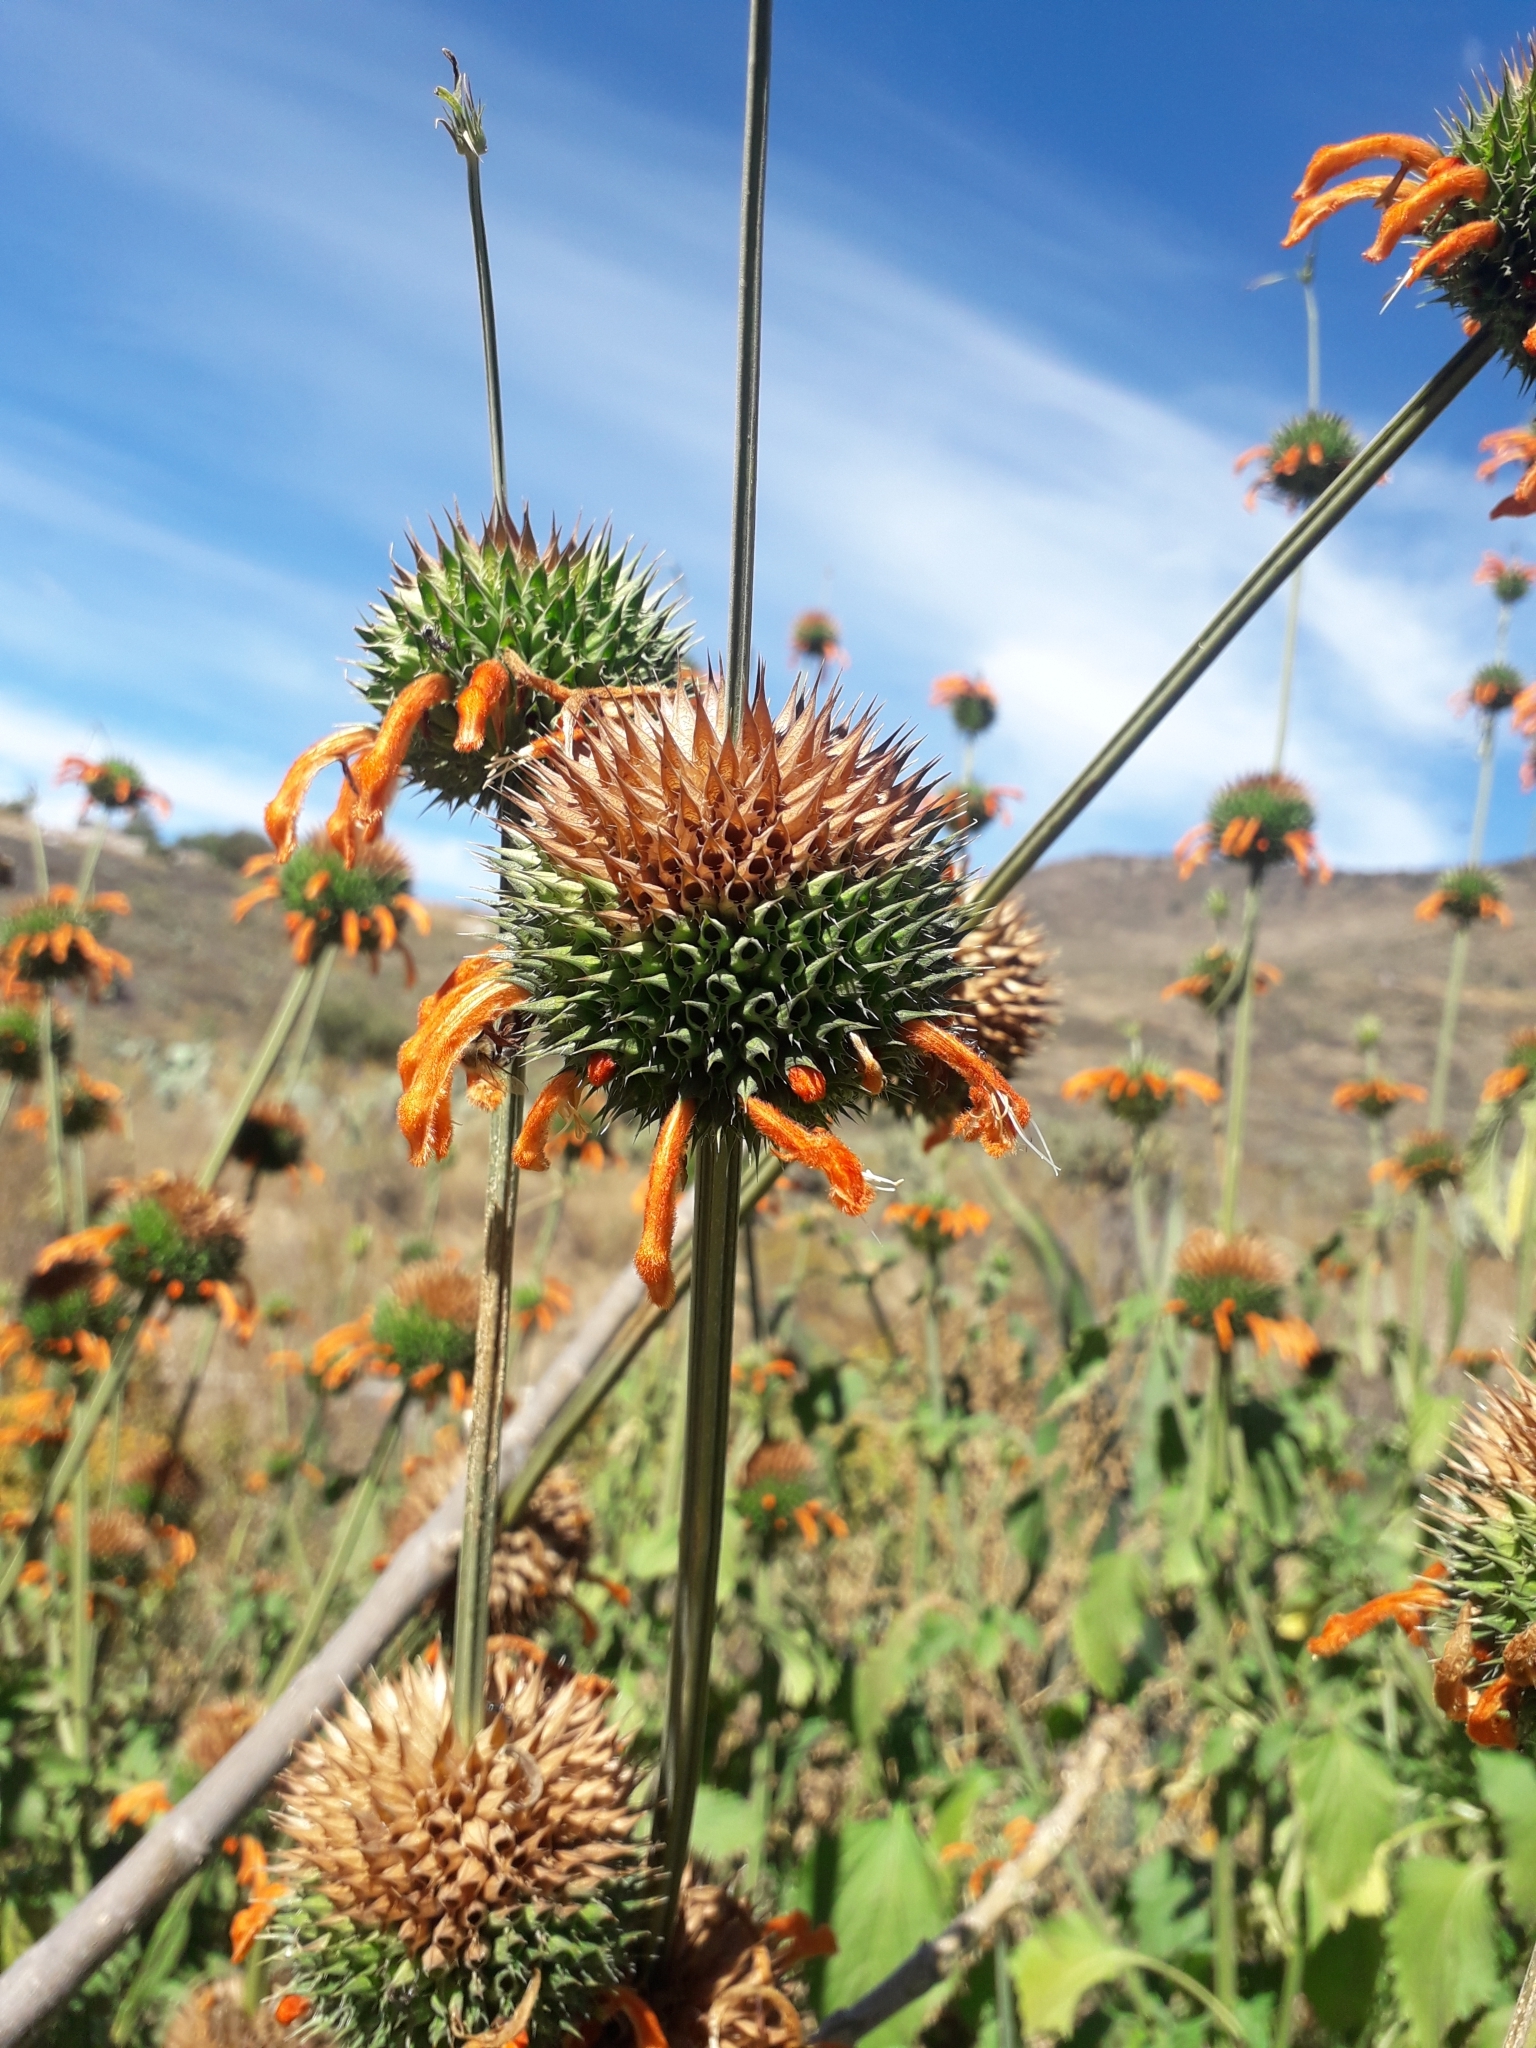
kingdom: Plantae
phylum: Tracheophyta
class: Magnoliopsida
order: Lamiales
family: Lamiaceae
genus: Leonotis
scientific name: Leonotis nepetifolia
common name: Christmas candlestick
